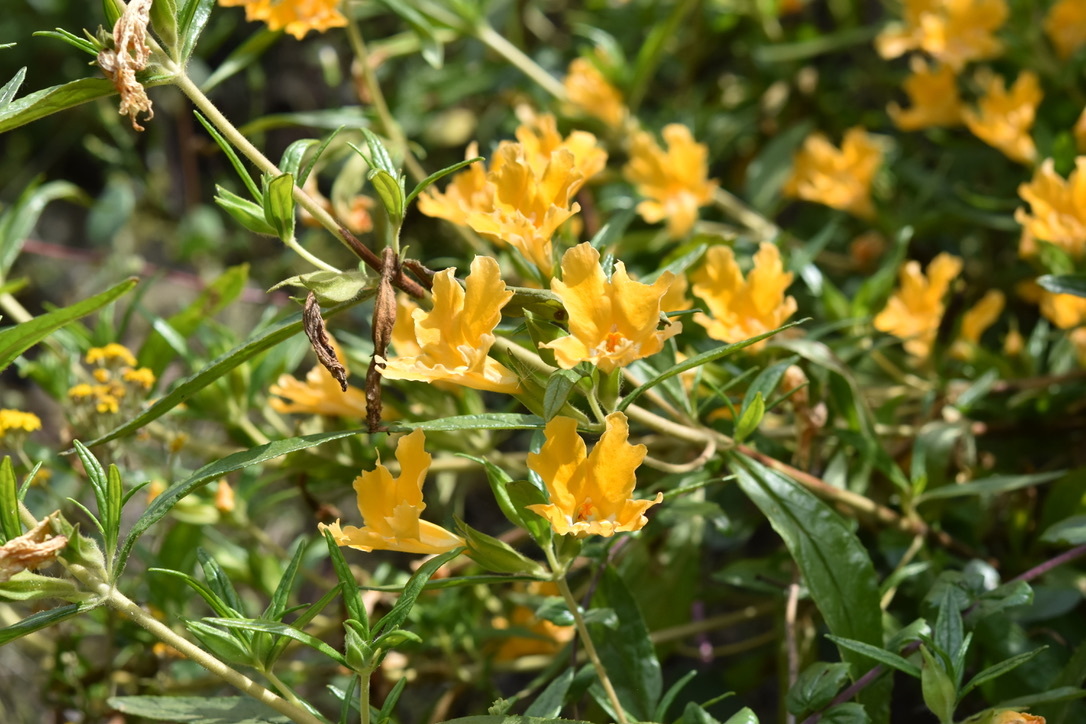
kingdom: Plantae
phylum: Tracheophyta
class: Magnoliopsida
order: Lamiales
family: Phrymaceae
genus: Diplacus
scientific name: Diplacus longiflorus
